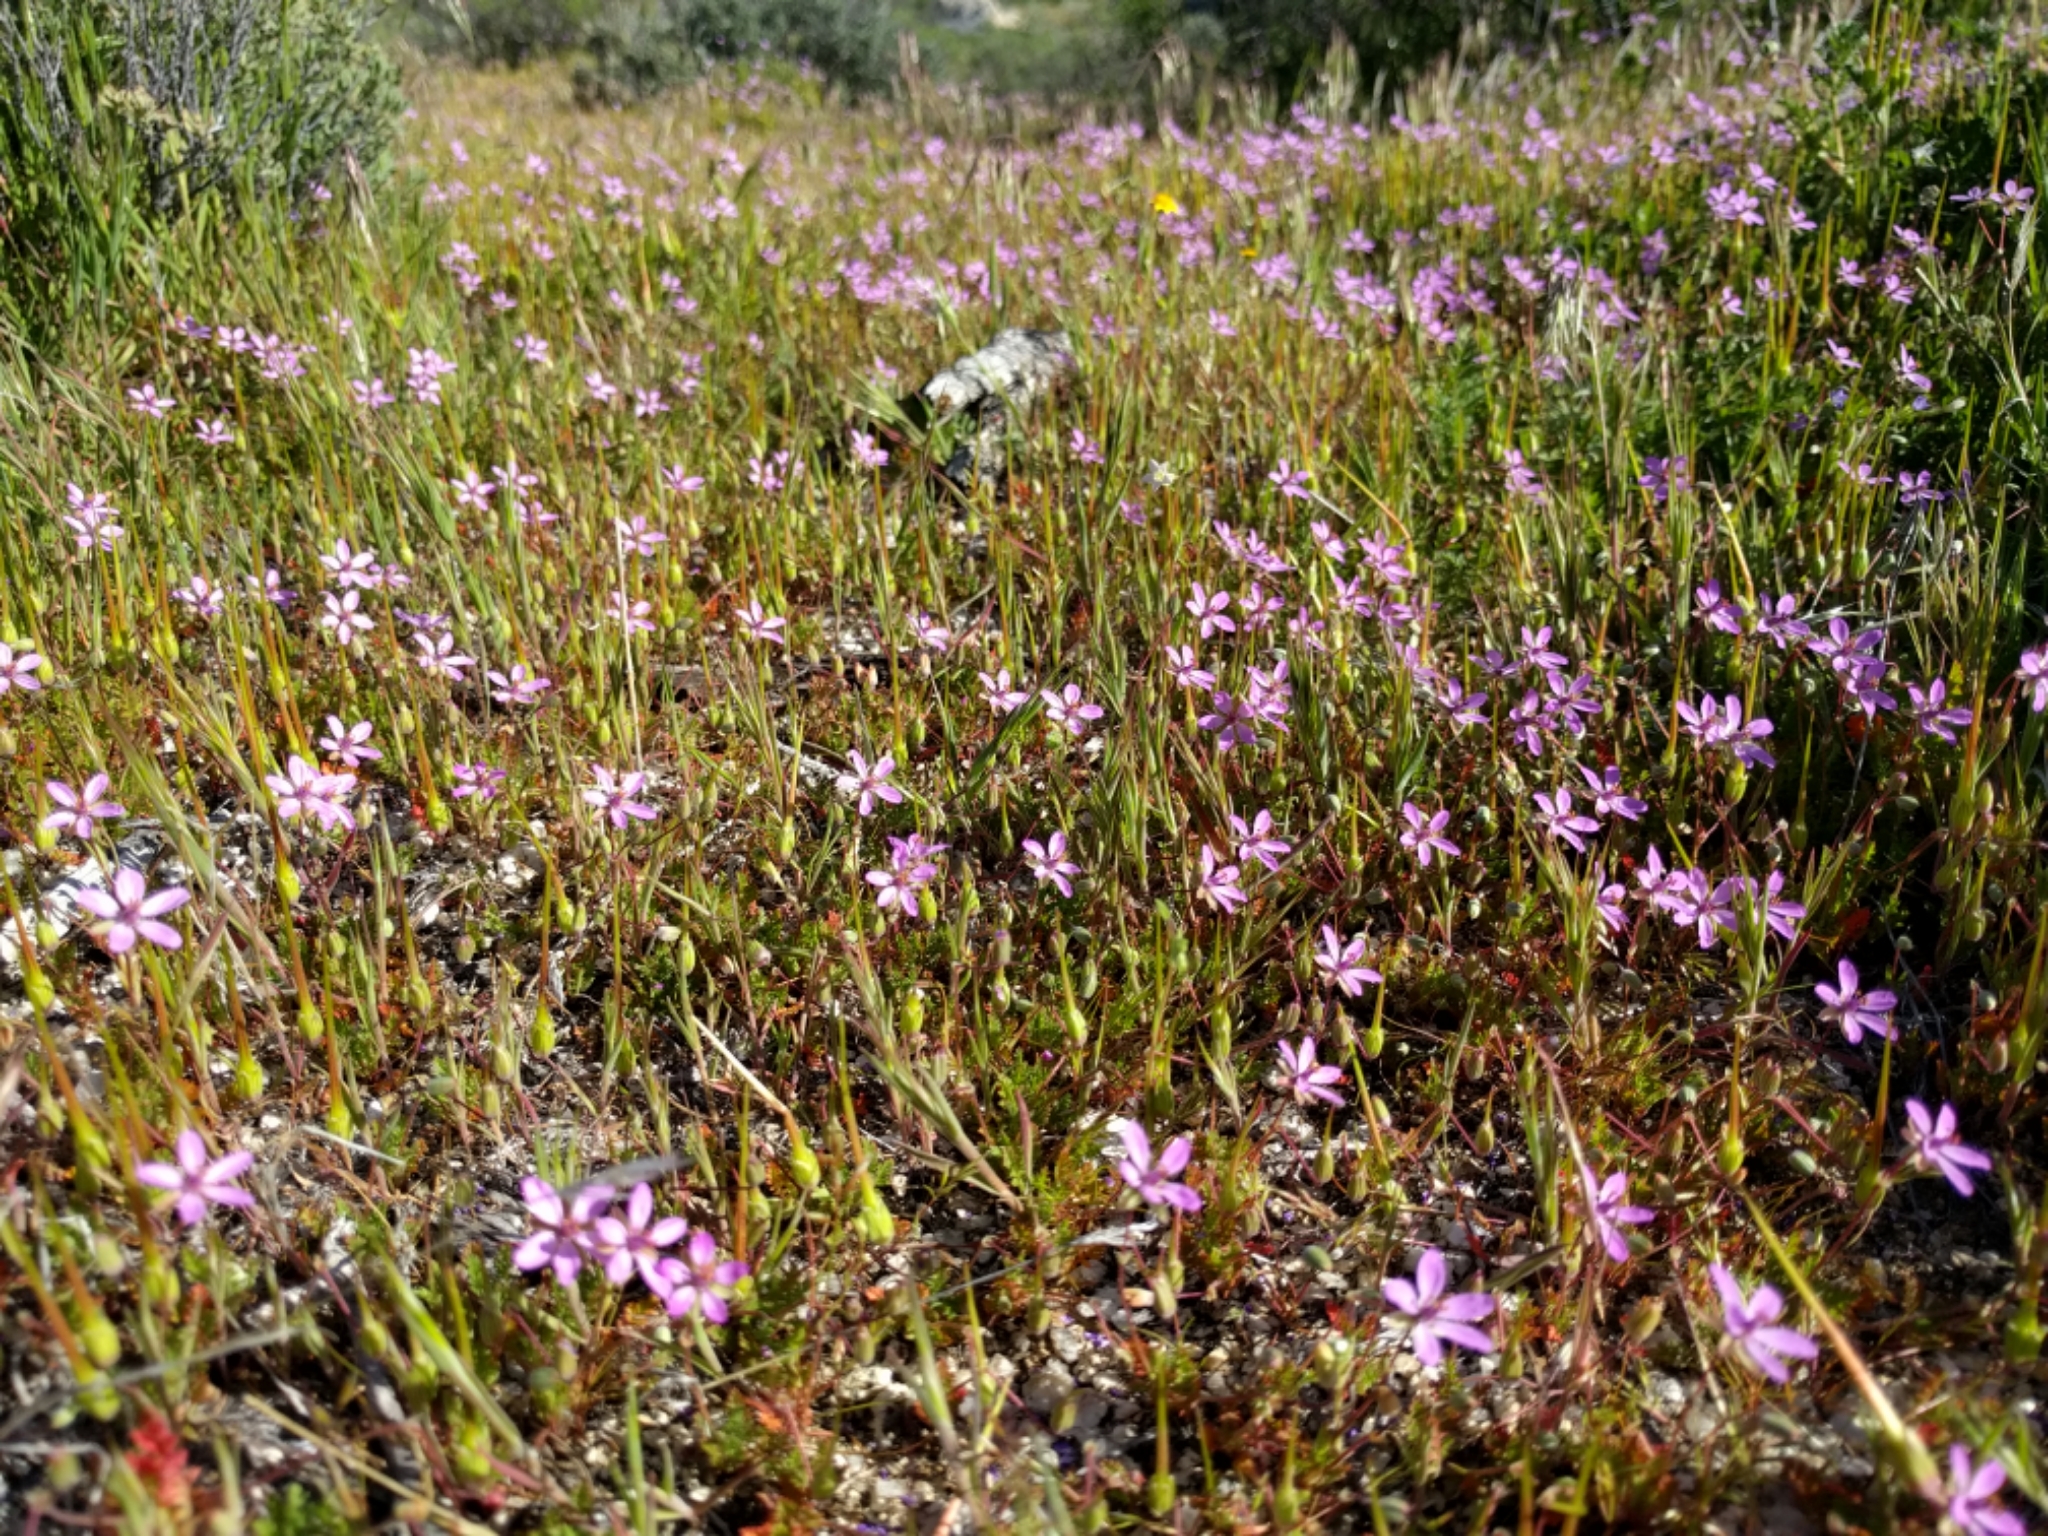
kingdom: Plantae
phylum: Tracheophyta
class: Magnoliopsida
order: Geraniales
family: Geraniaceae
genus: Erodium
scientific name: Erodium cicutarium
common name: Common stork's-bill
